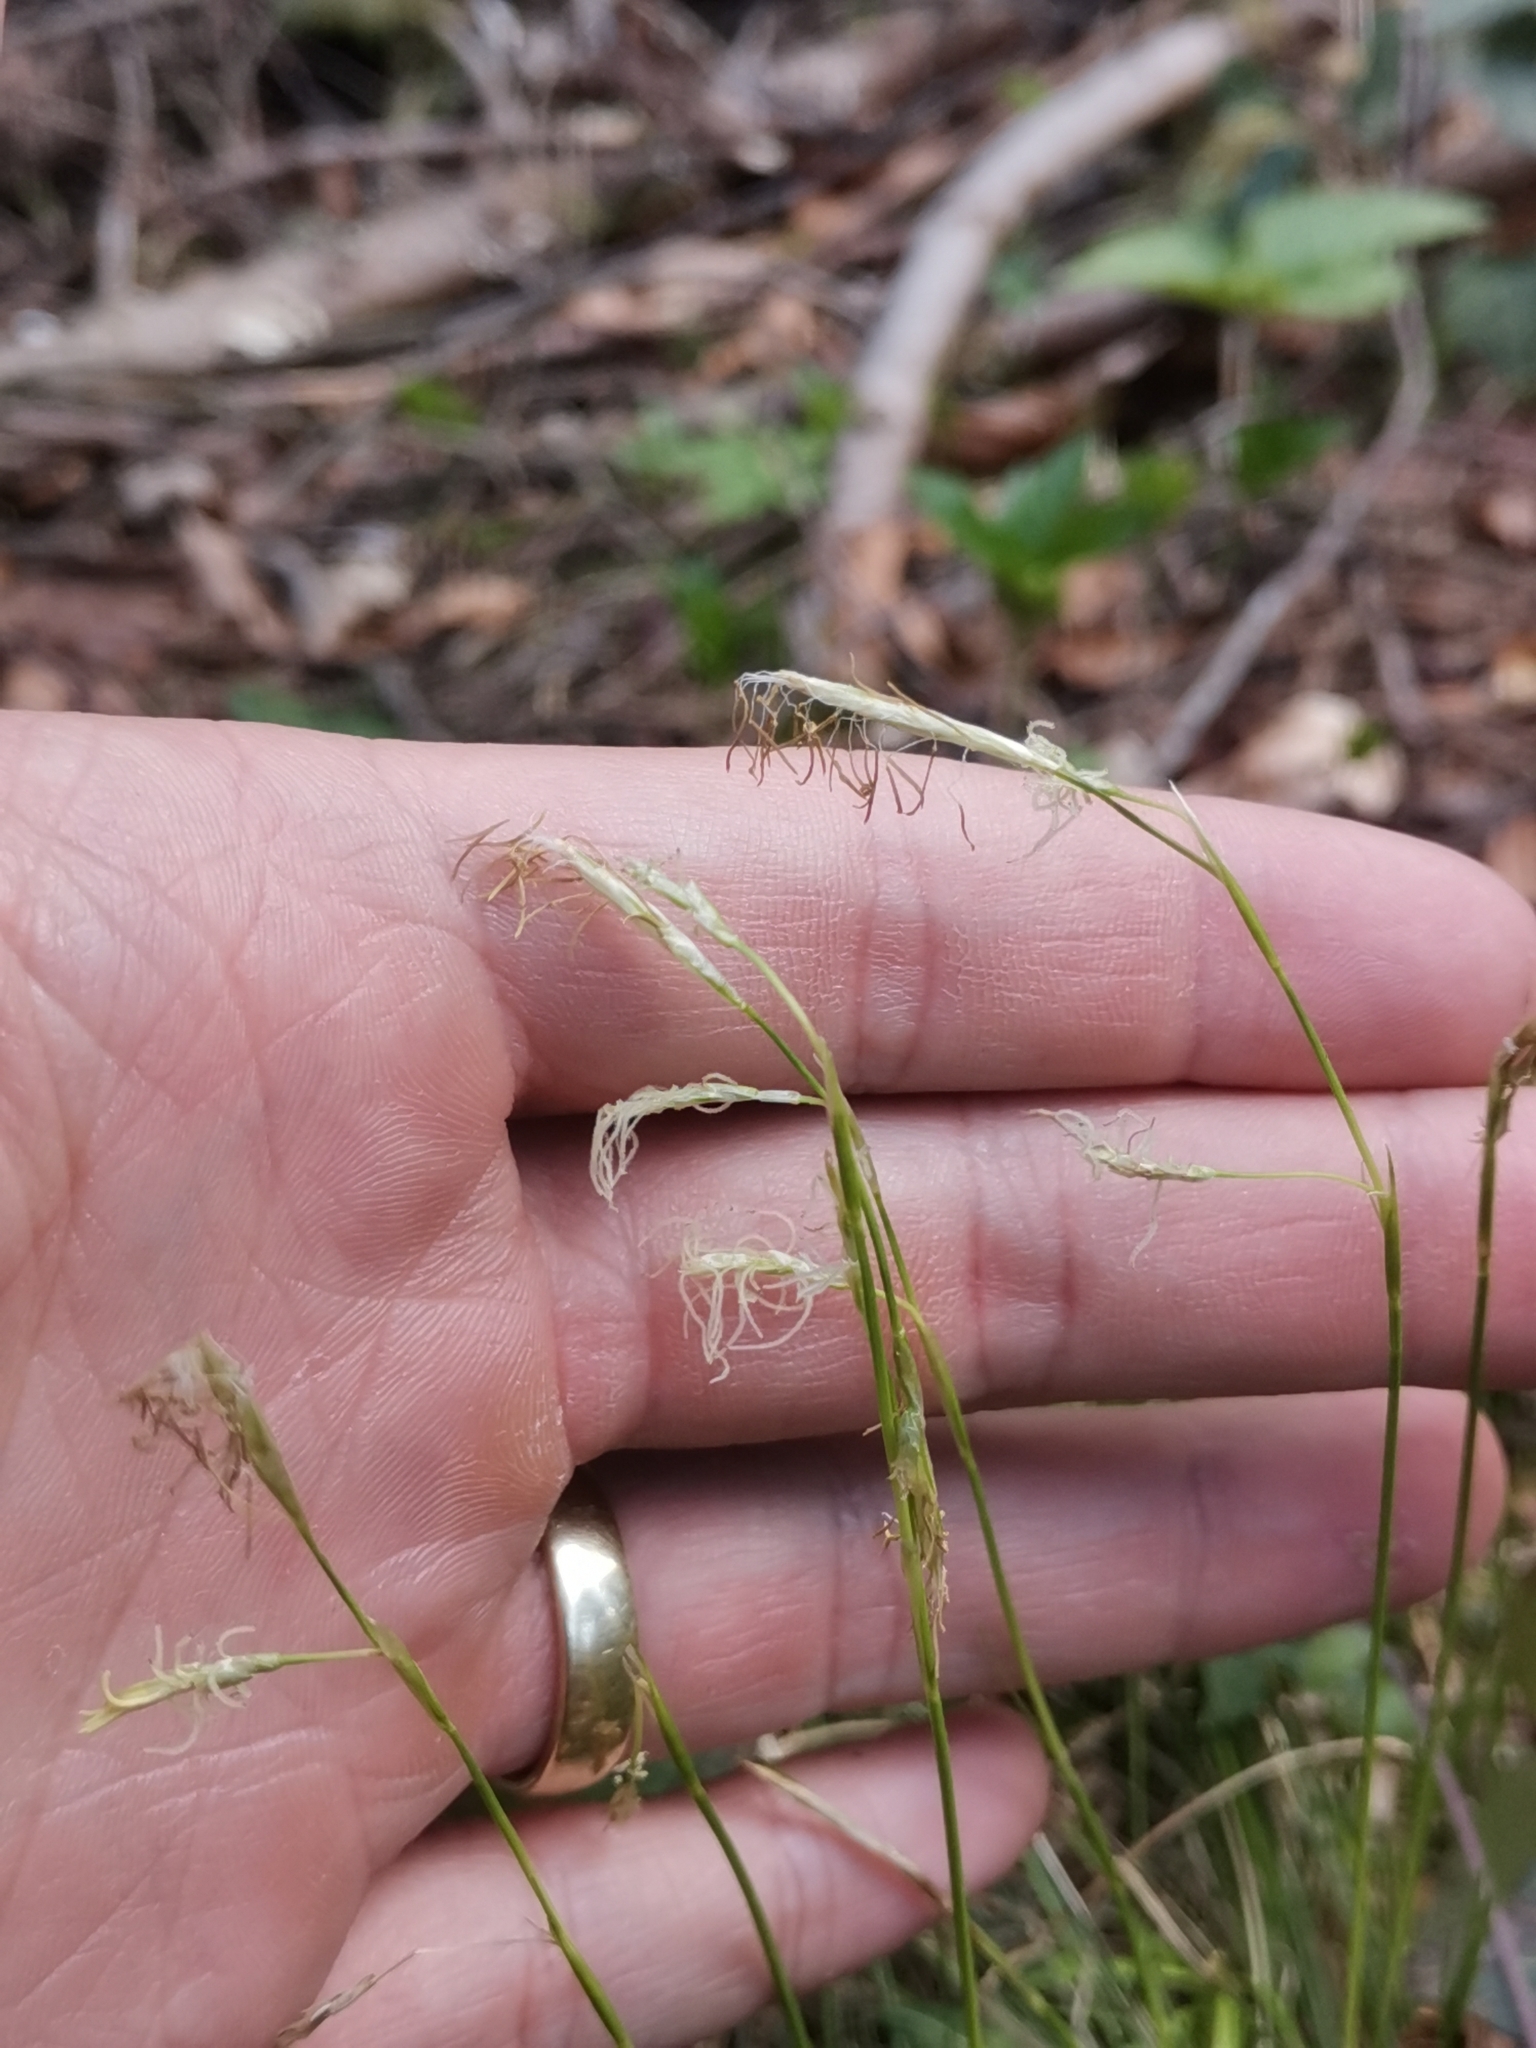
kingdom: Plantae
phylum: Tracheophyta
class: Liliopsida
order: Poales
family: Cyperaceae
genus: Carex
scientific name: Carex alba
